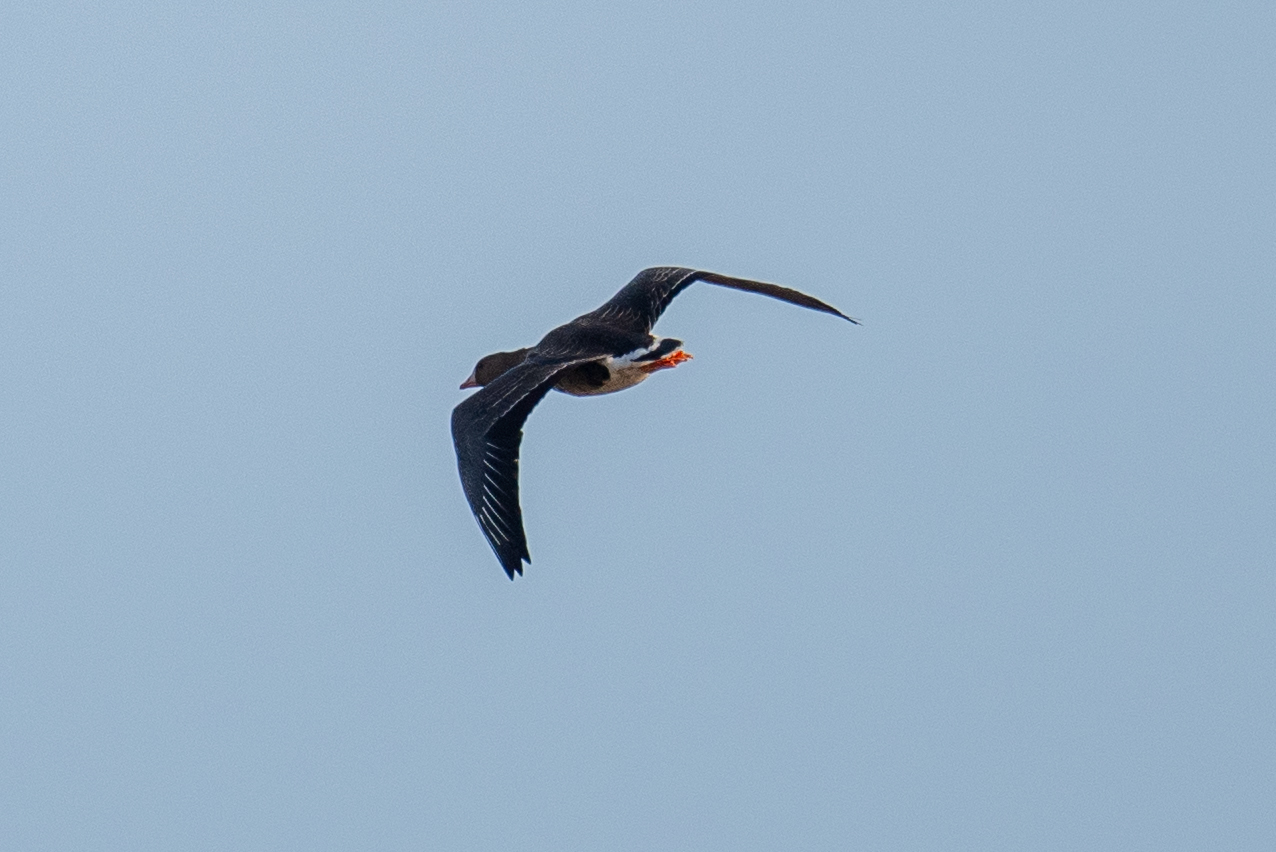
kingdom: Animalia
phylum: Chordata
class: Aves
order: Anseriformes
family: Anatidae
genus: Anser
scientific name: Anser albifrons
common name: Greater white-fronted goose
